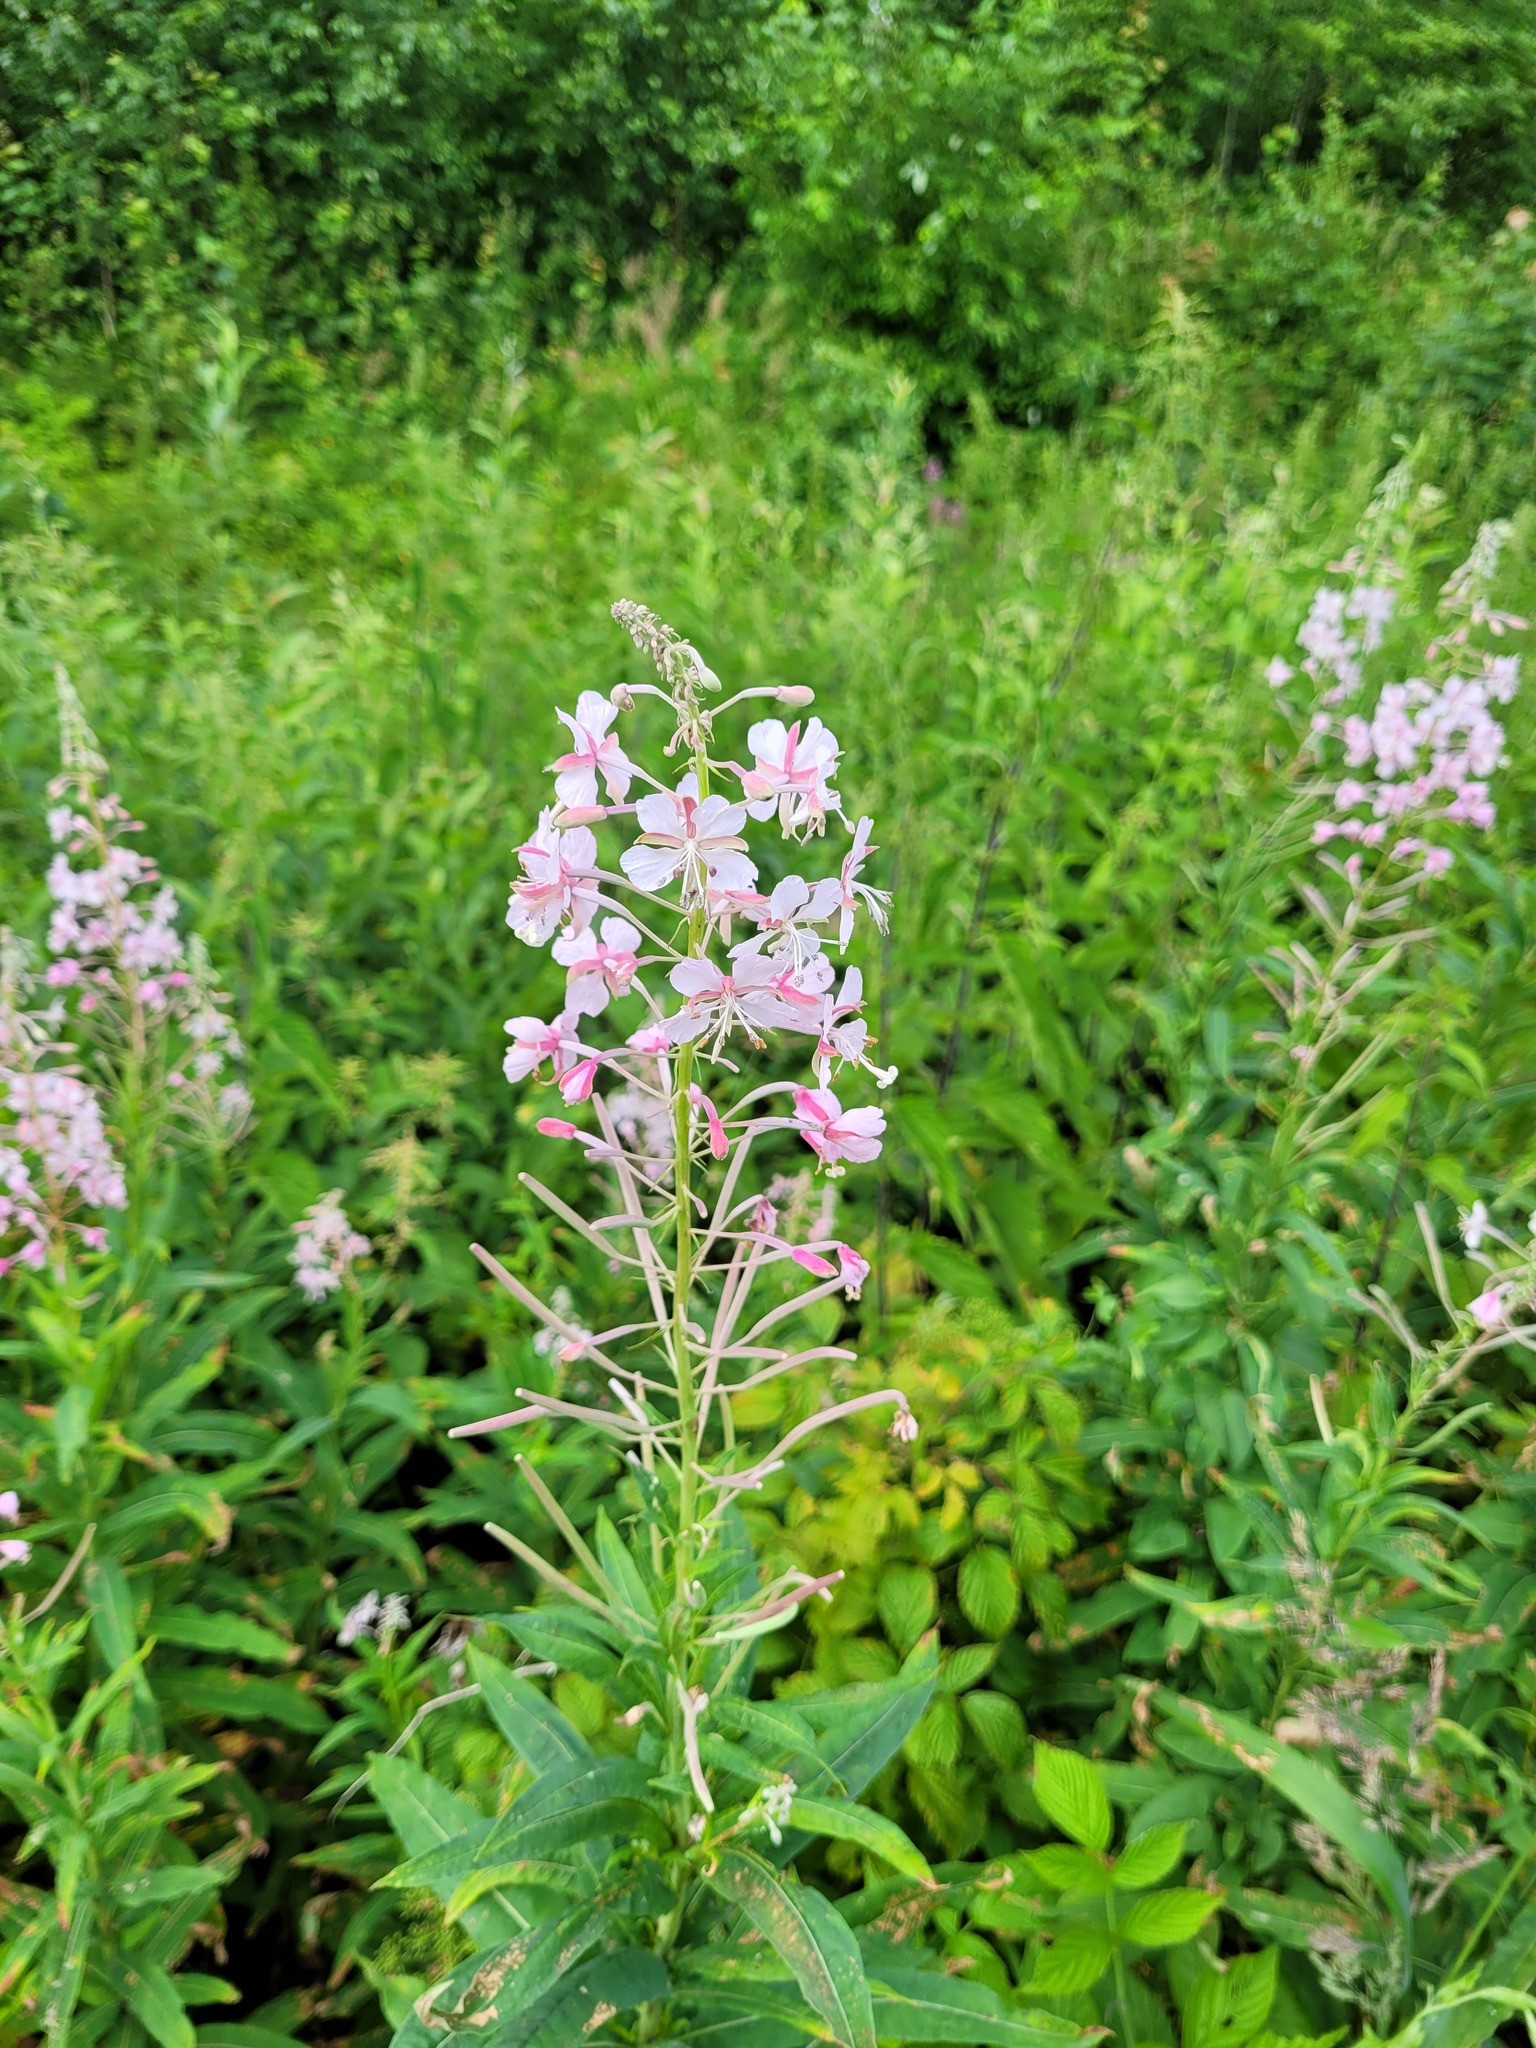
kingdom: Plantae
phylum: Tracheophyta
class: Magnoliopsida
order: Myrtales
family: Onagraceae
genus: Chamaenerion
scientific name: Chamaenerion angustifolium
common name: Fireweed
